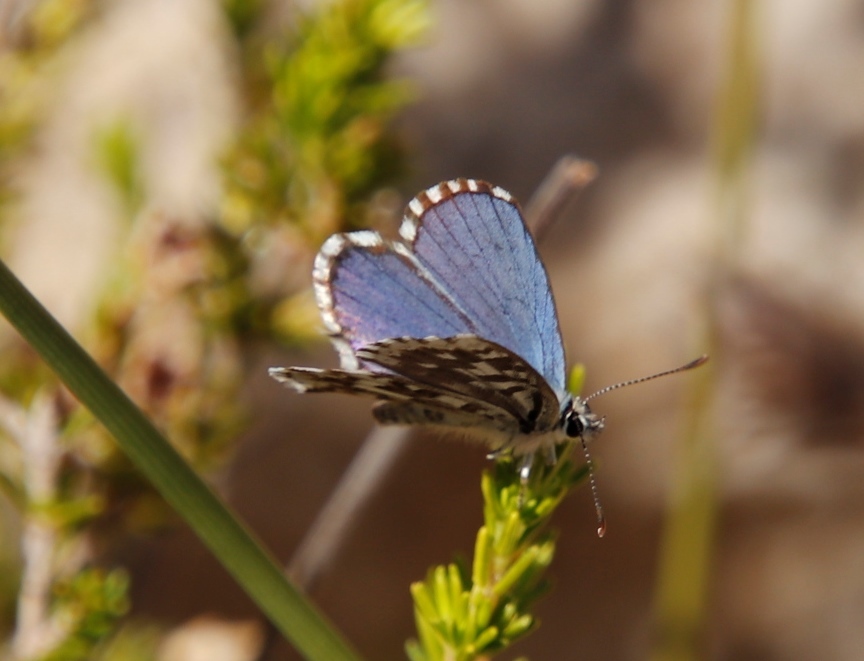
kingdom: Animalia
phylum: Arthropoda
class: Insecta
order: Lepidoptera
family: Lycaenidae
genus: Tarucus
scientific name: Tarucus thespis
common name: Vivid dotted blue
